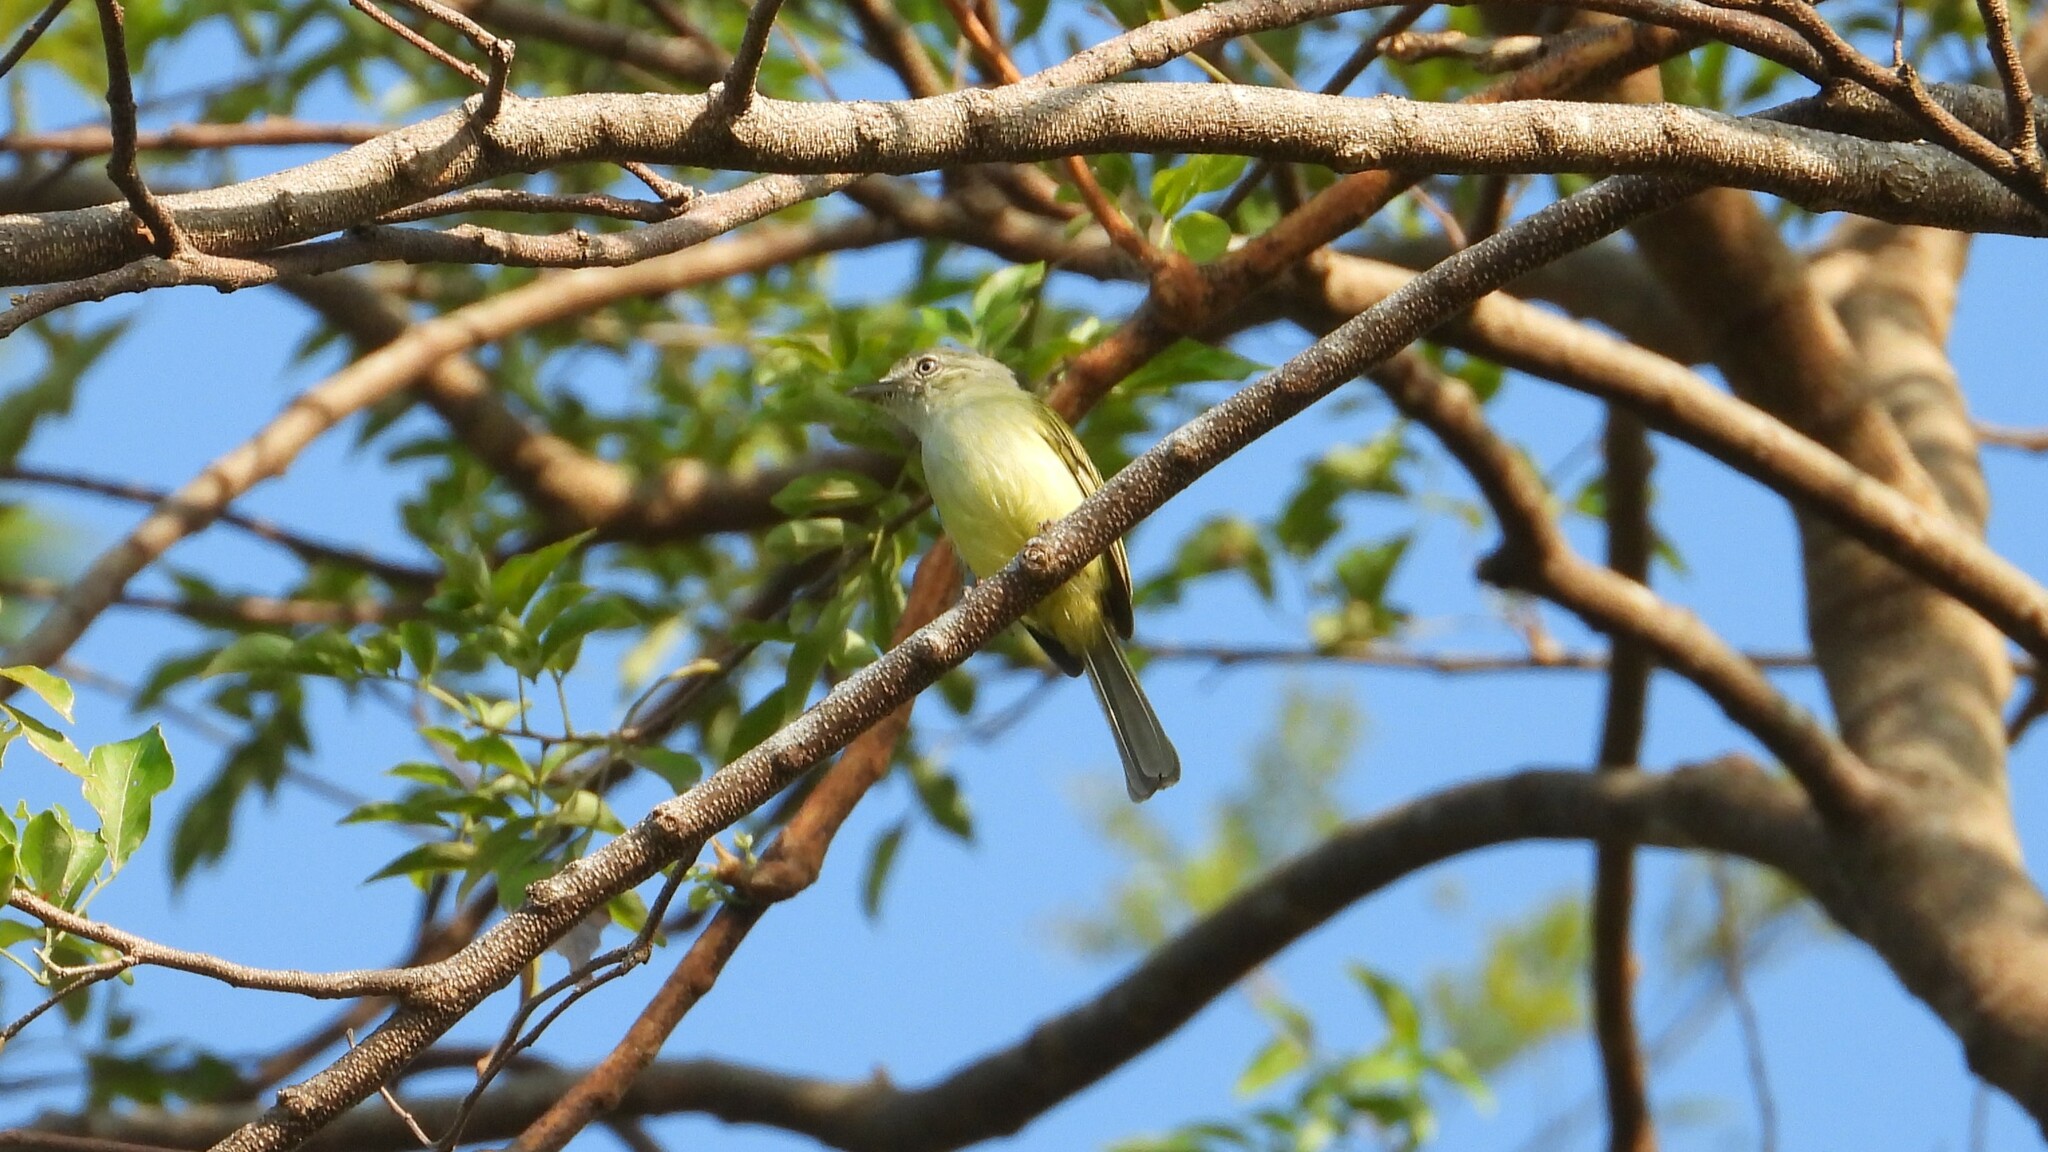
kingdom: Animalia
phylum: Chordata
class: Aves
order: Passeriformes
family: Tyrannidae
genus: Tolmomyias
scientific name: Tolmomyias sulphurescens
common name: Yellow-olive flycatcher
